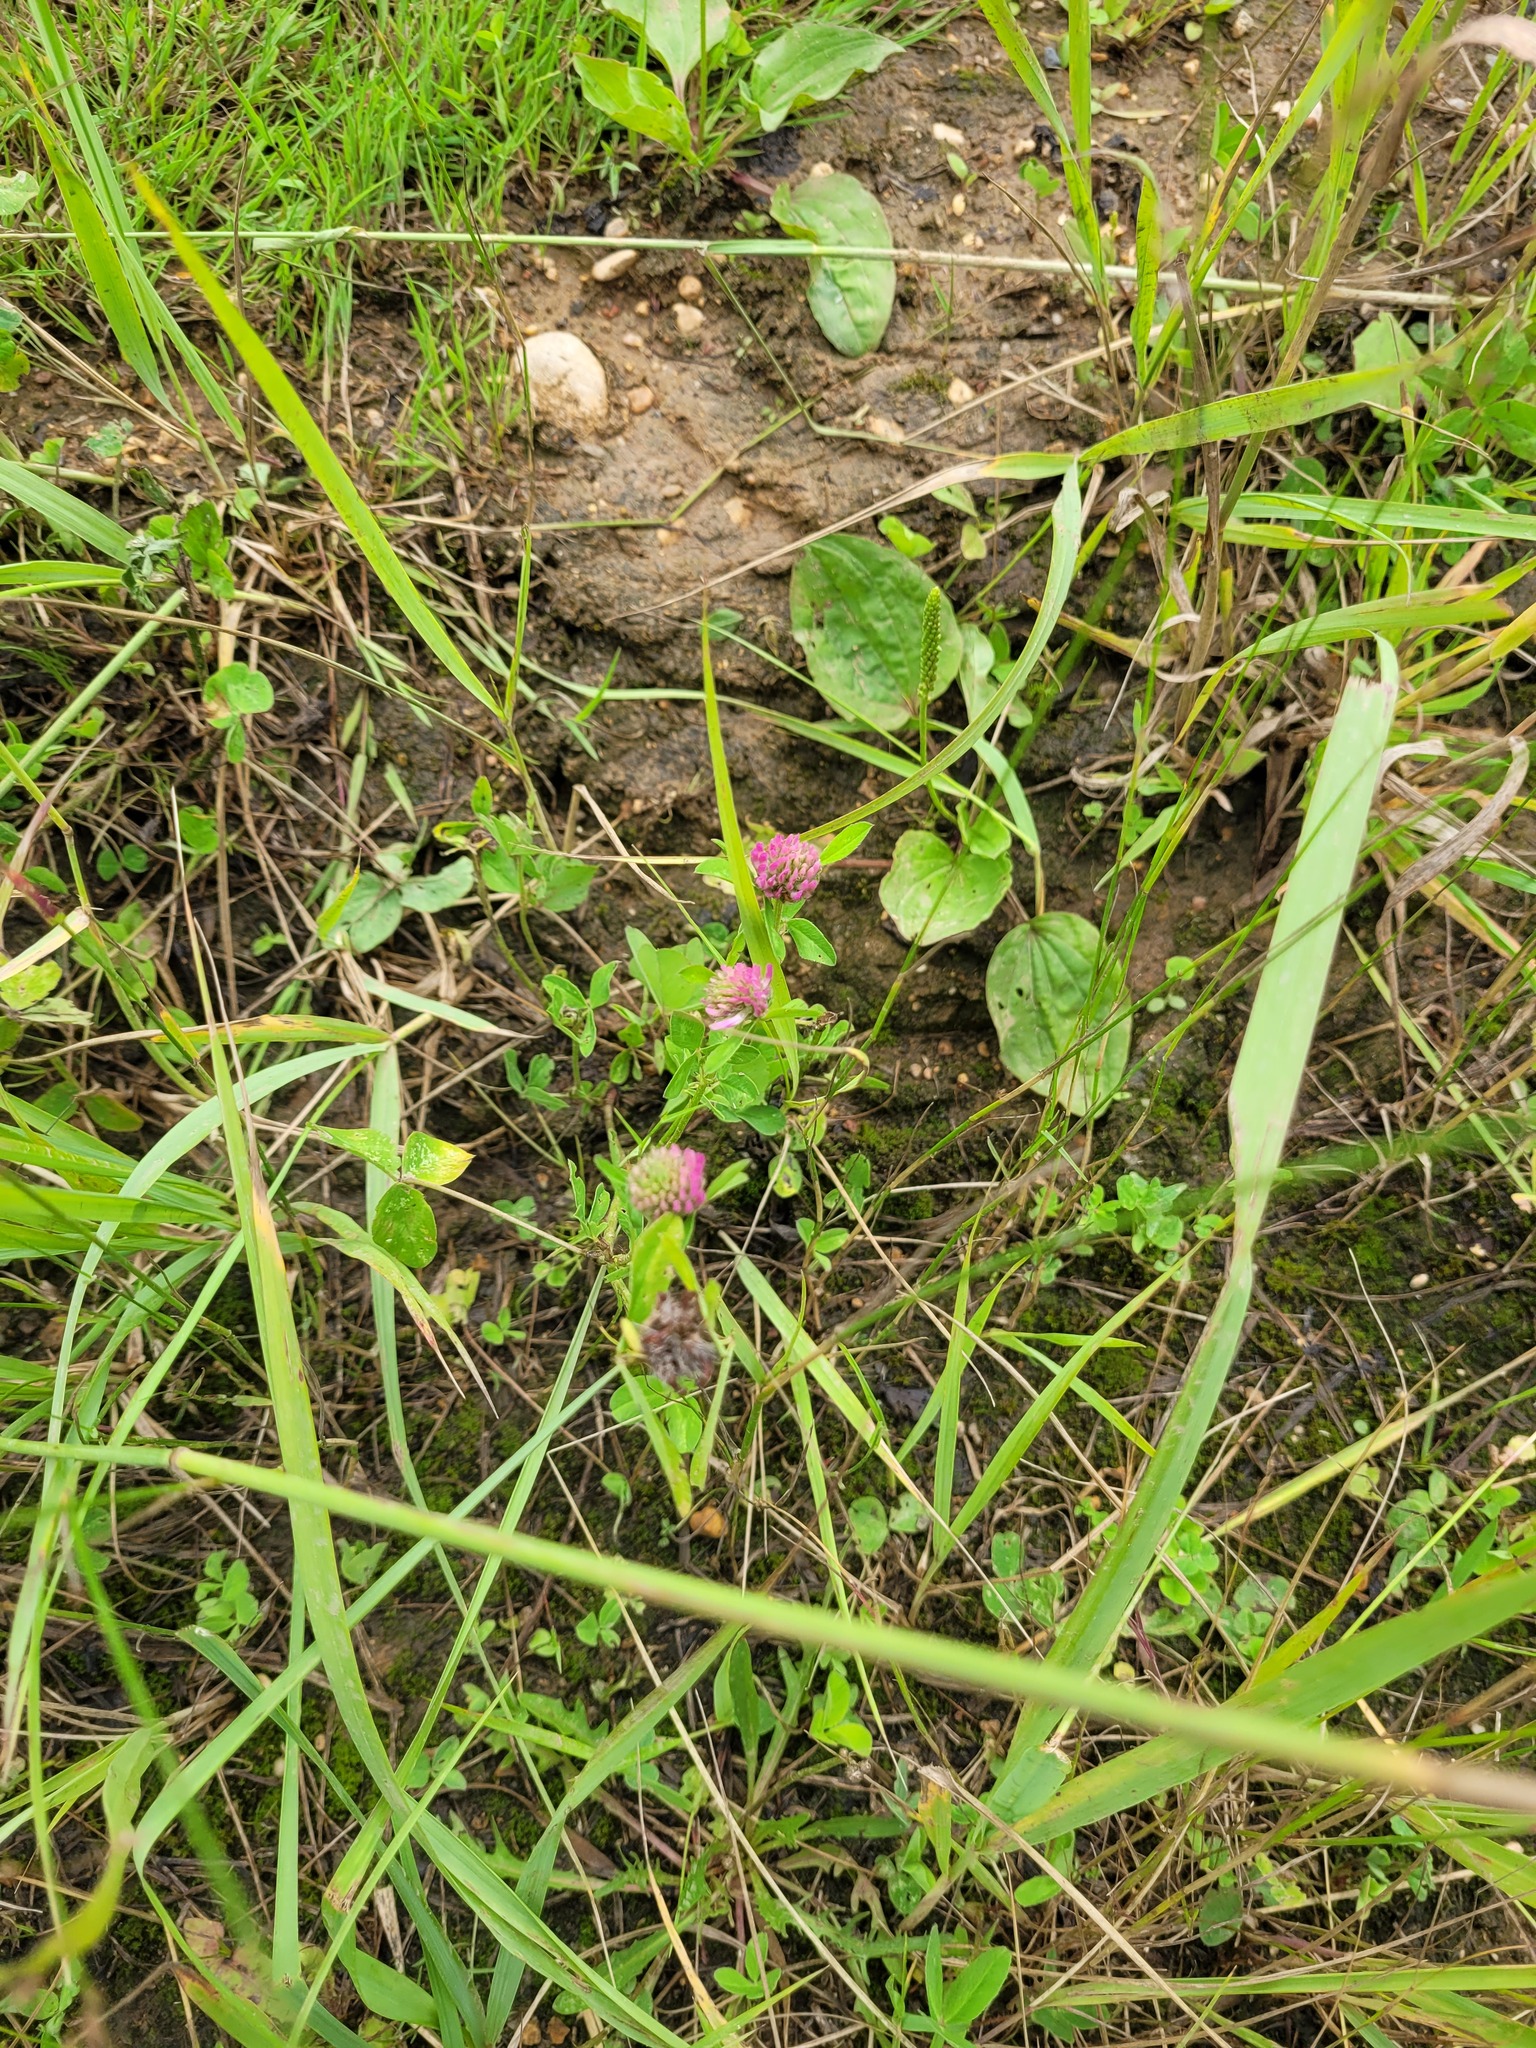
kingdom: Plantae
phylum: Tracheophyta
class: Magnoliopsida
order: Fabales
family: Fabaceae
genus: Trifolium
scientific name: Trifolium pratense
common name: Red clover
